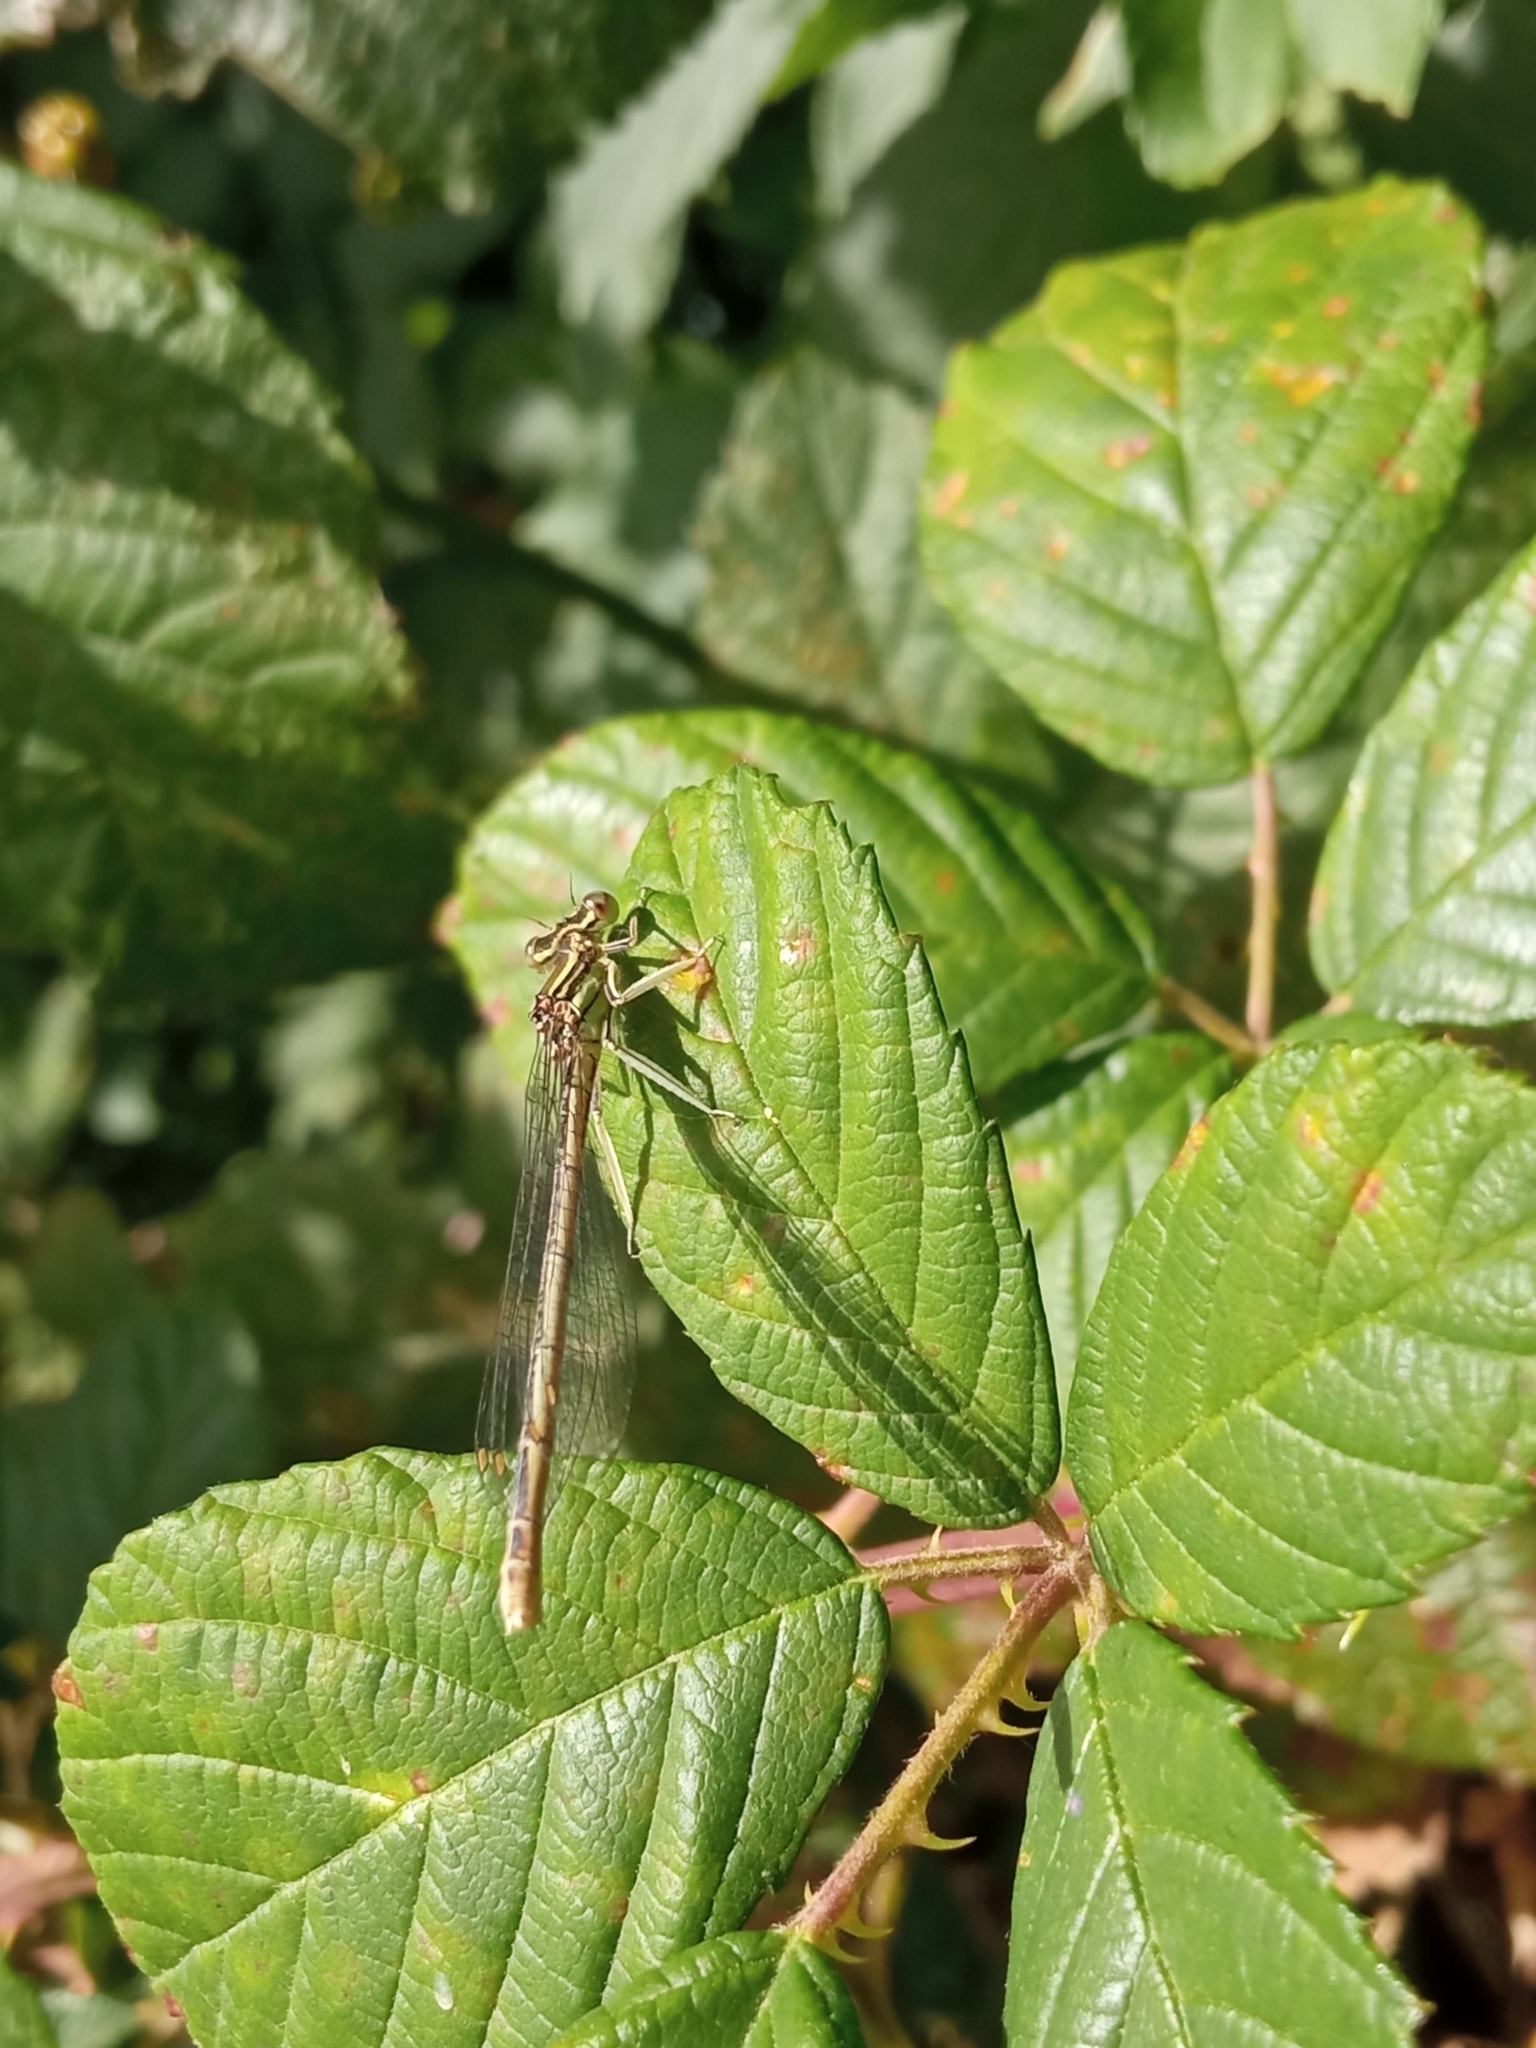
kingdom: Animalia
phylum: Arthropoda
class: Insecta
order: Odonata
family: Platycnemididae
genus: Platycnemis
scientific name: Platycnemis pennipes
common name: White-legged damselfly
